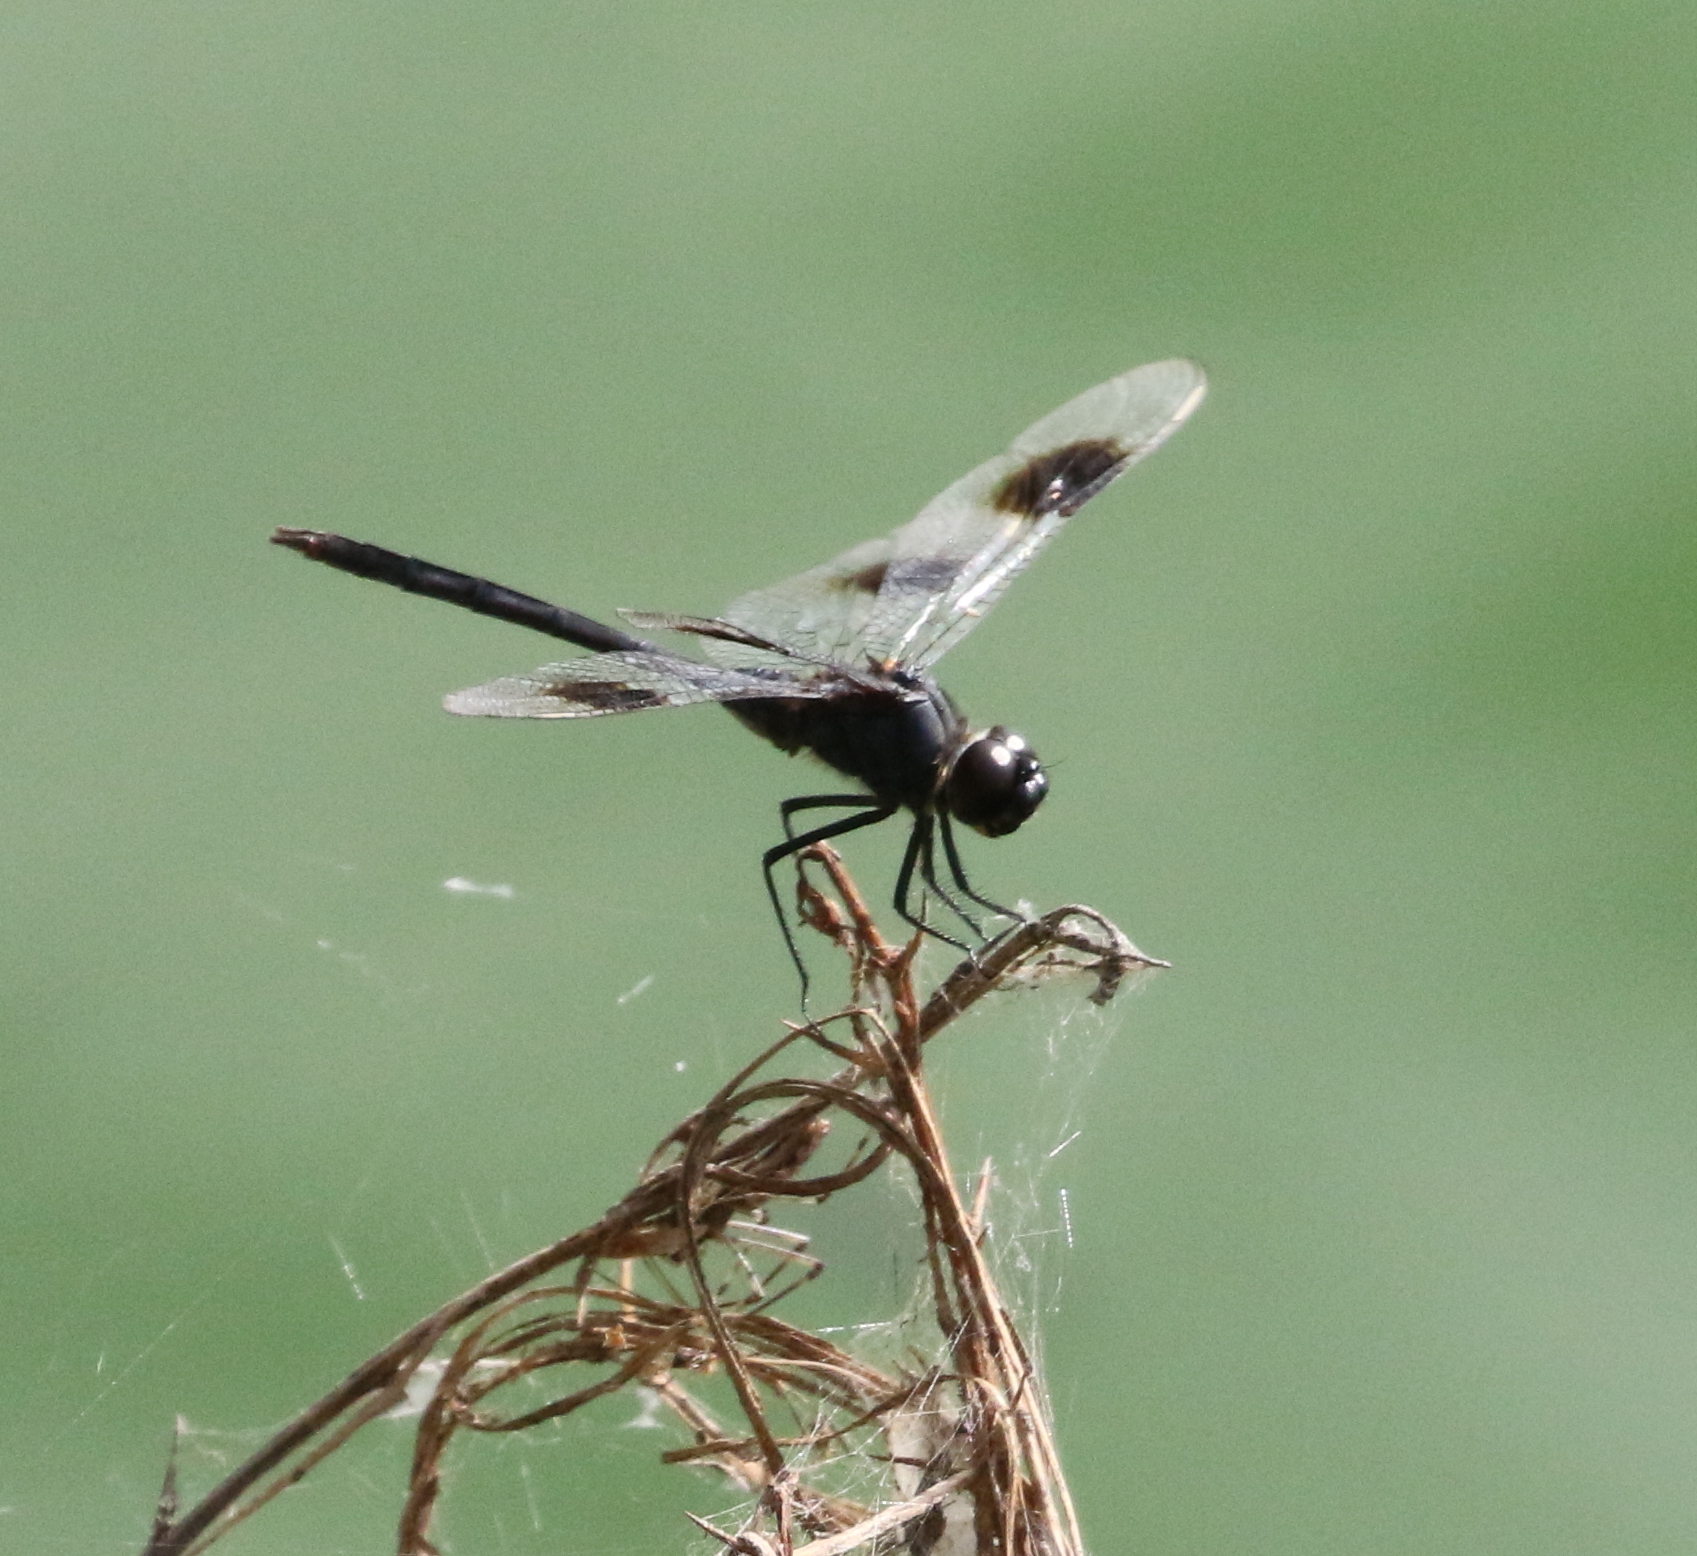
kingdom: Animalia
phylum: Arthropoda
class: Insecta
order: Odonata
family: Libellulidae
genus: Brachymesia
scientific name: Brachymesia gravida
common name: Four-spotted pennant
